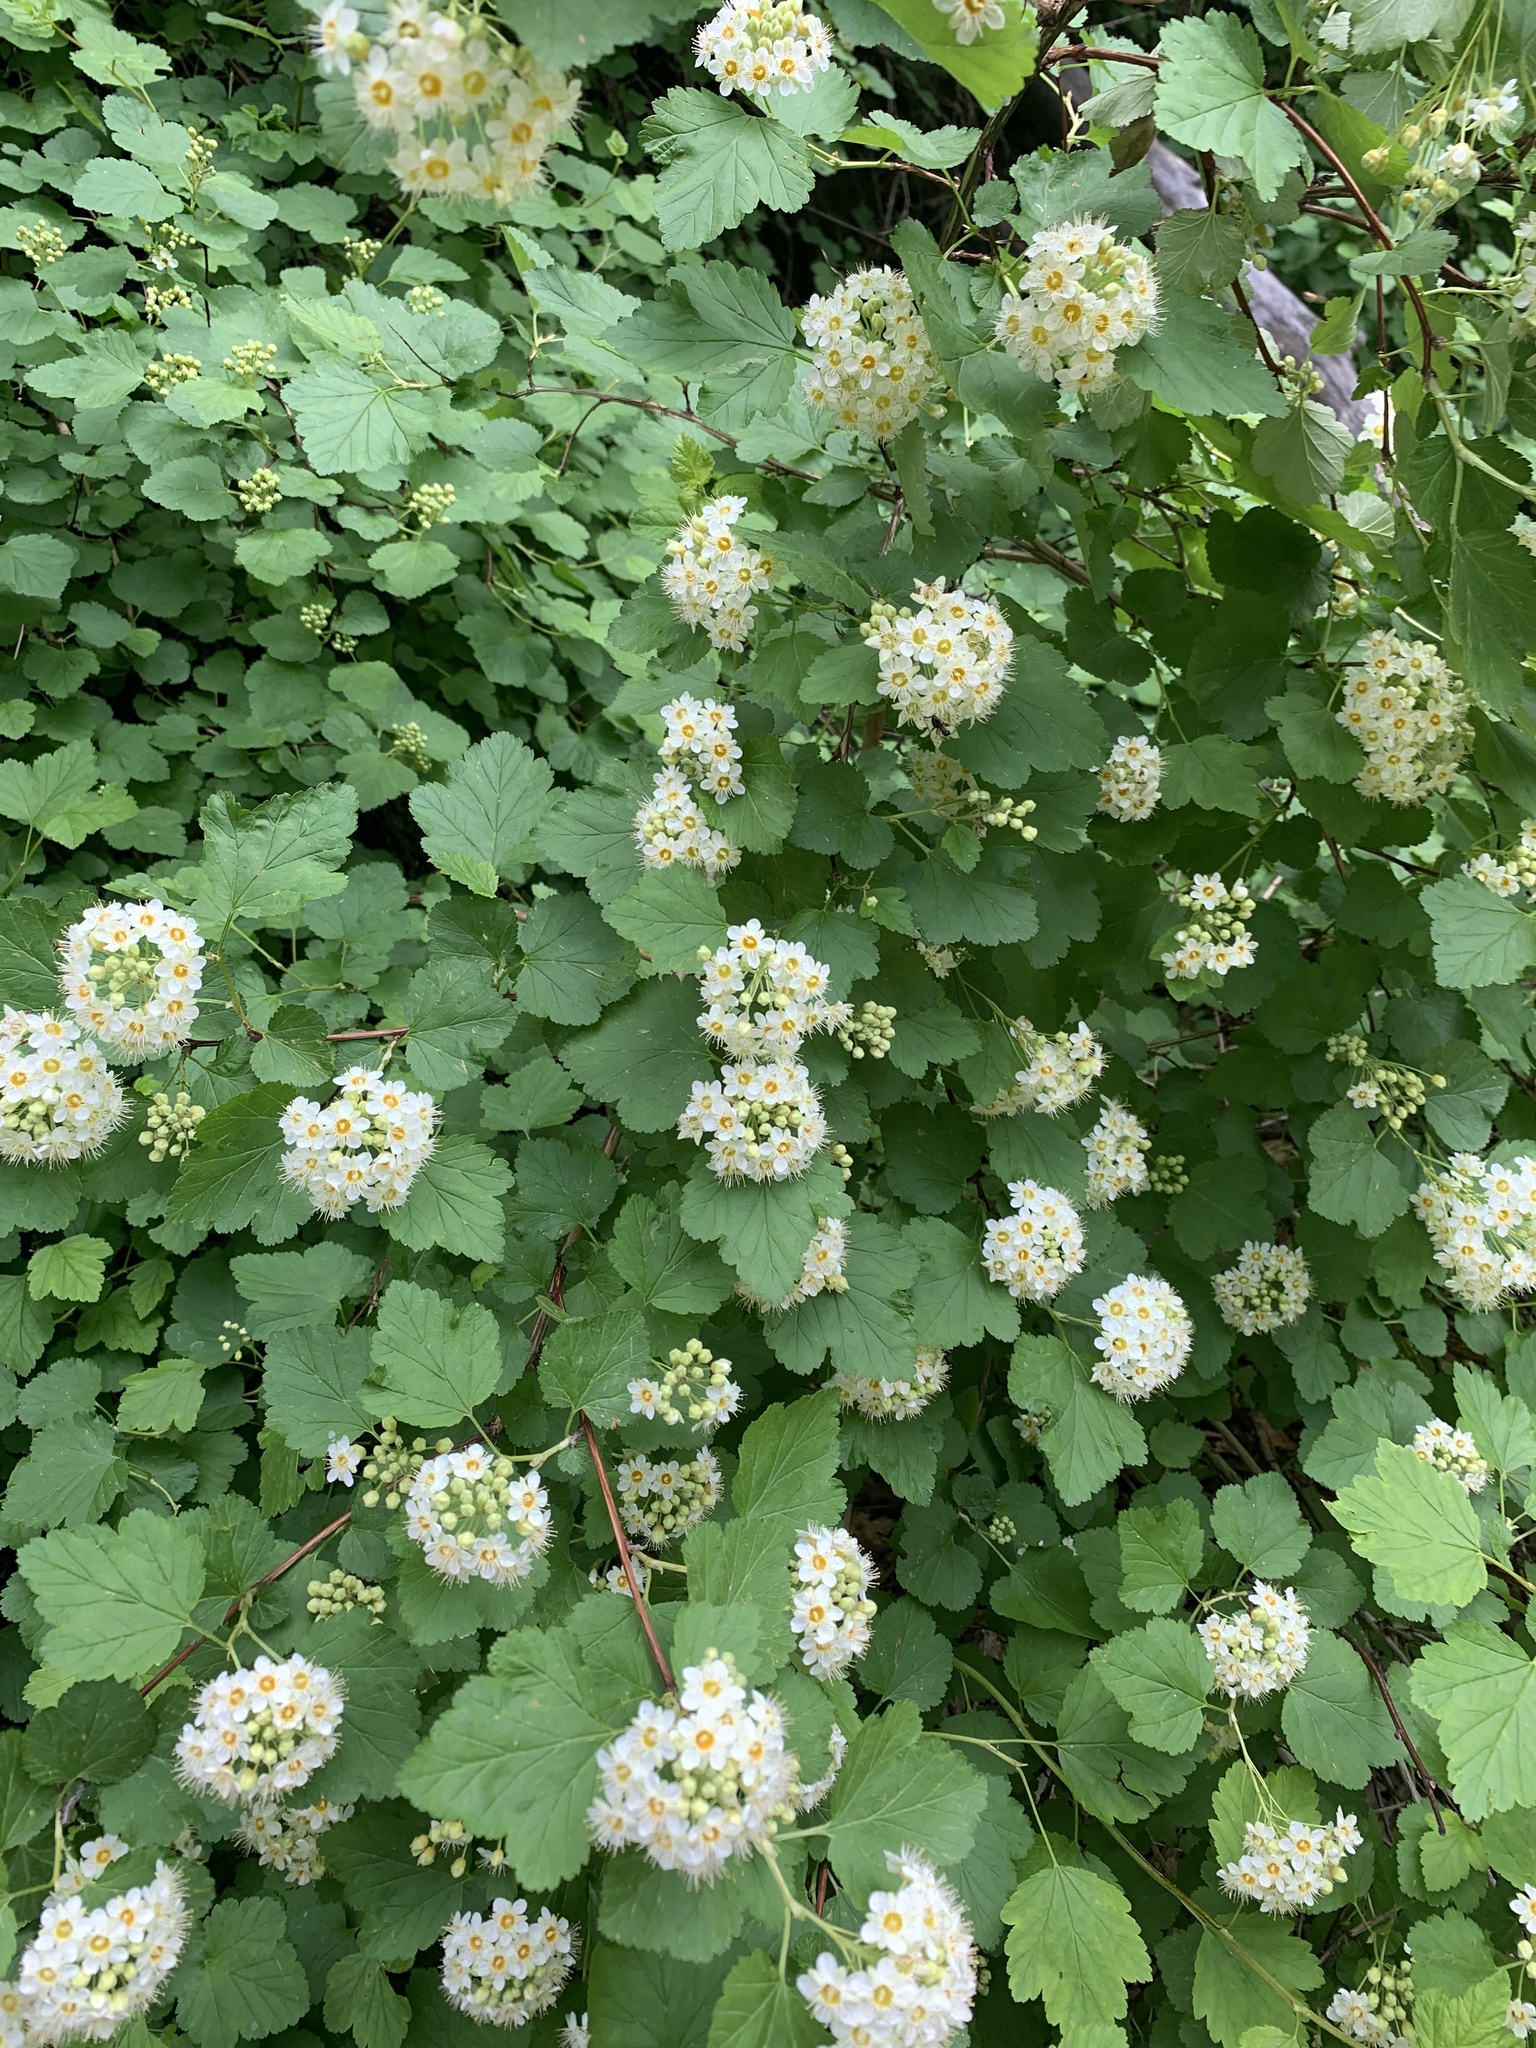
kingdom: Plantae
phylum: Tracheophyta
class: Magnoliopsida
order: Rosales
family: Rosaceae
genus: Physocarpus
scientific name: Physocarpus malvaceus
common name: Mallow ninebark
